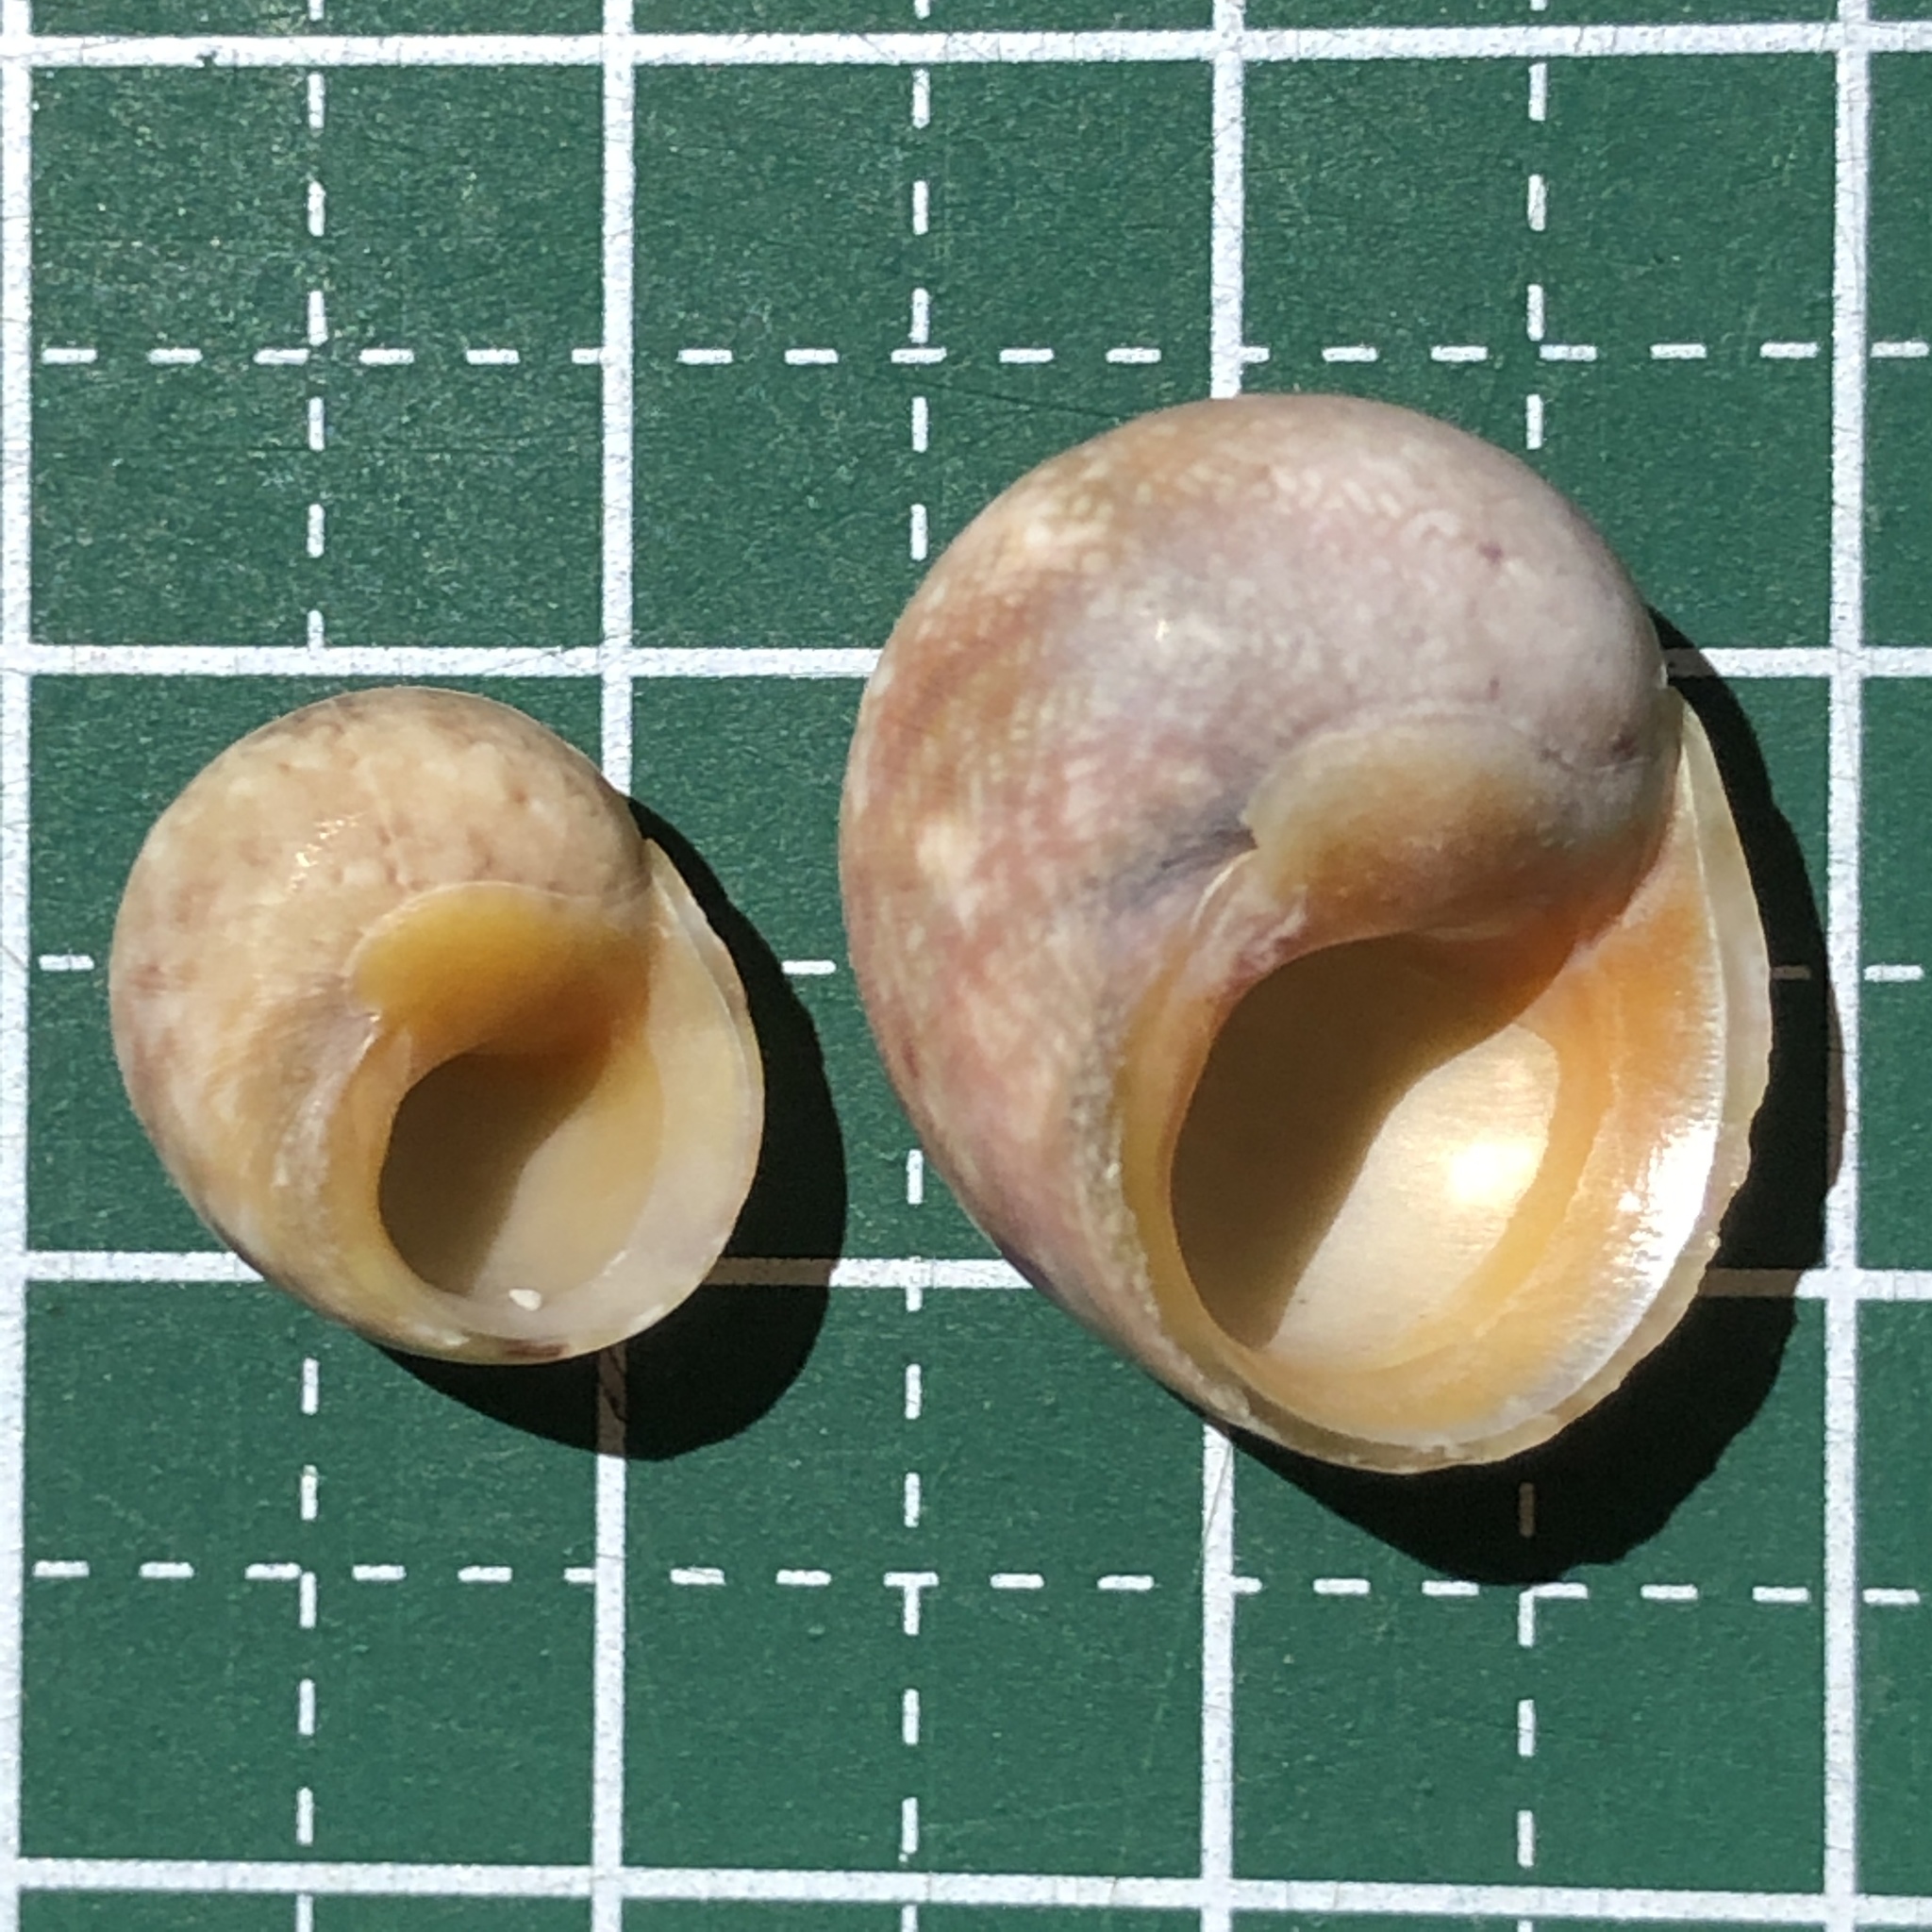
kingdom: Animalia
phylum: Mollusca
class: Gastropoda
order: Trochida
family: Trochidae
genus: Chrysostoma
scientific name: Chrysostoma paradoxum
